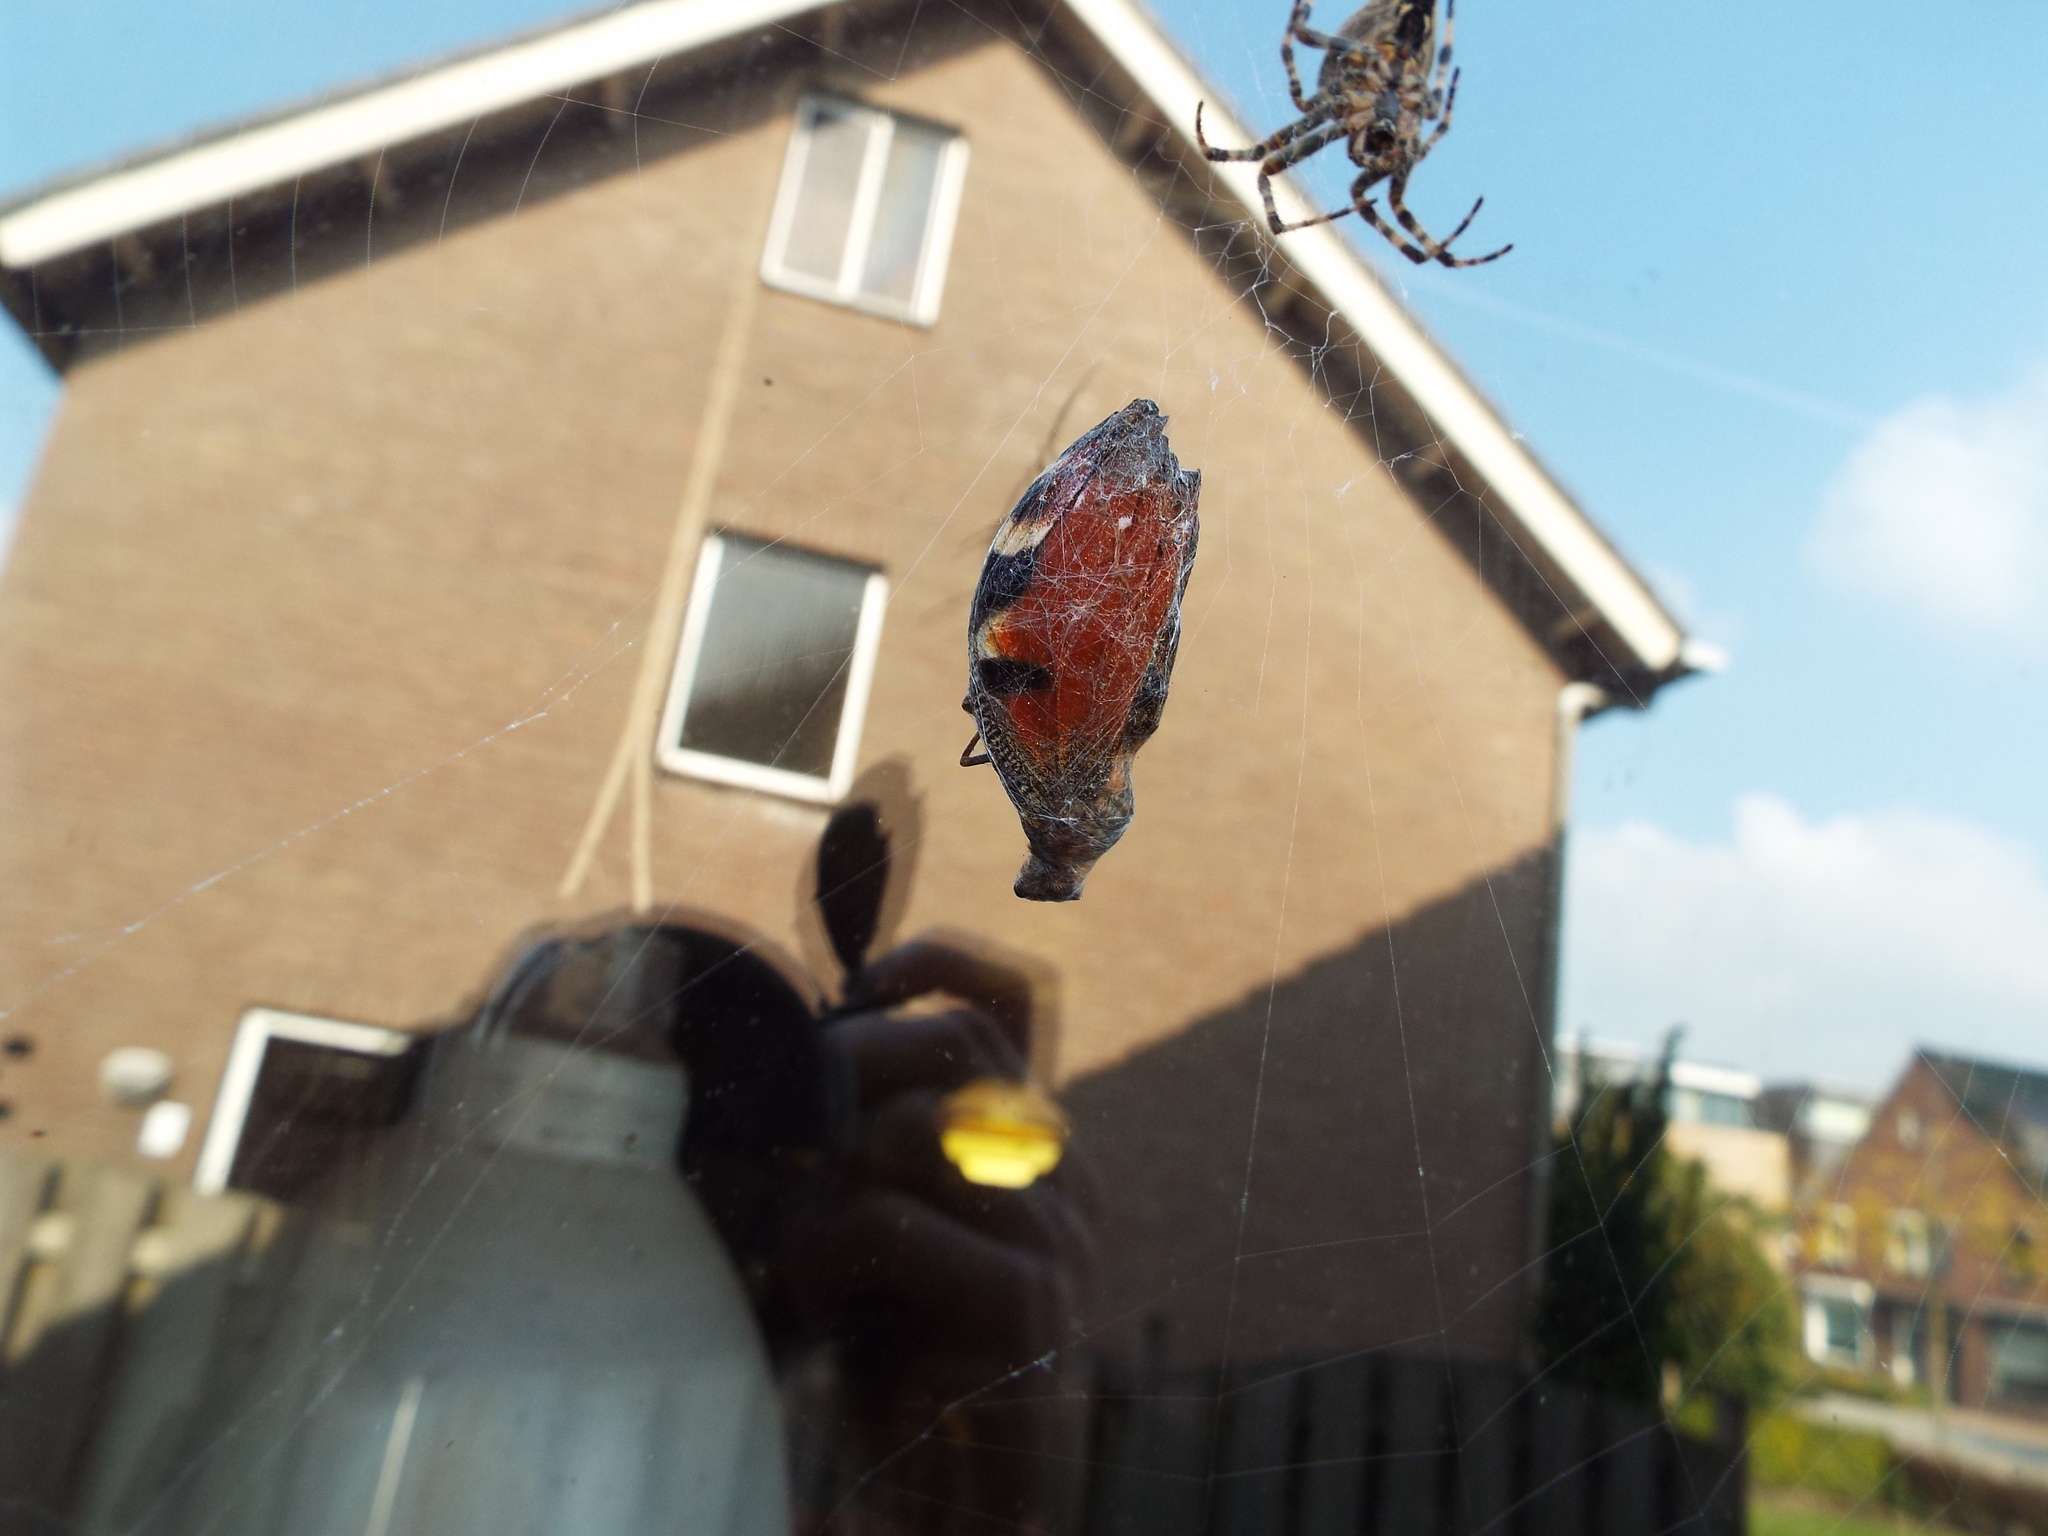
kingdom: Animalia
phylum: Arthropoda
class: Insecta
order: Lepidoptera
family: Nymphalidae
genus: Aglais
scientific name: Aglais io
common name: Peacock
